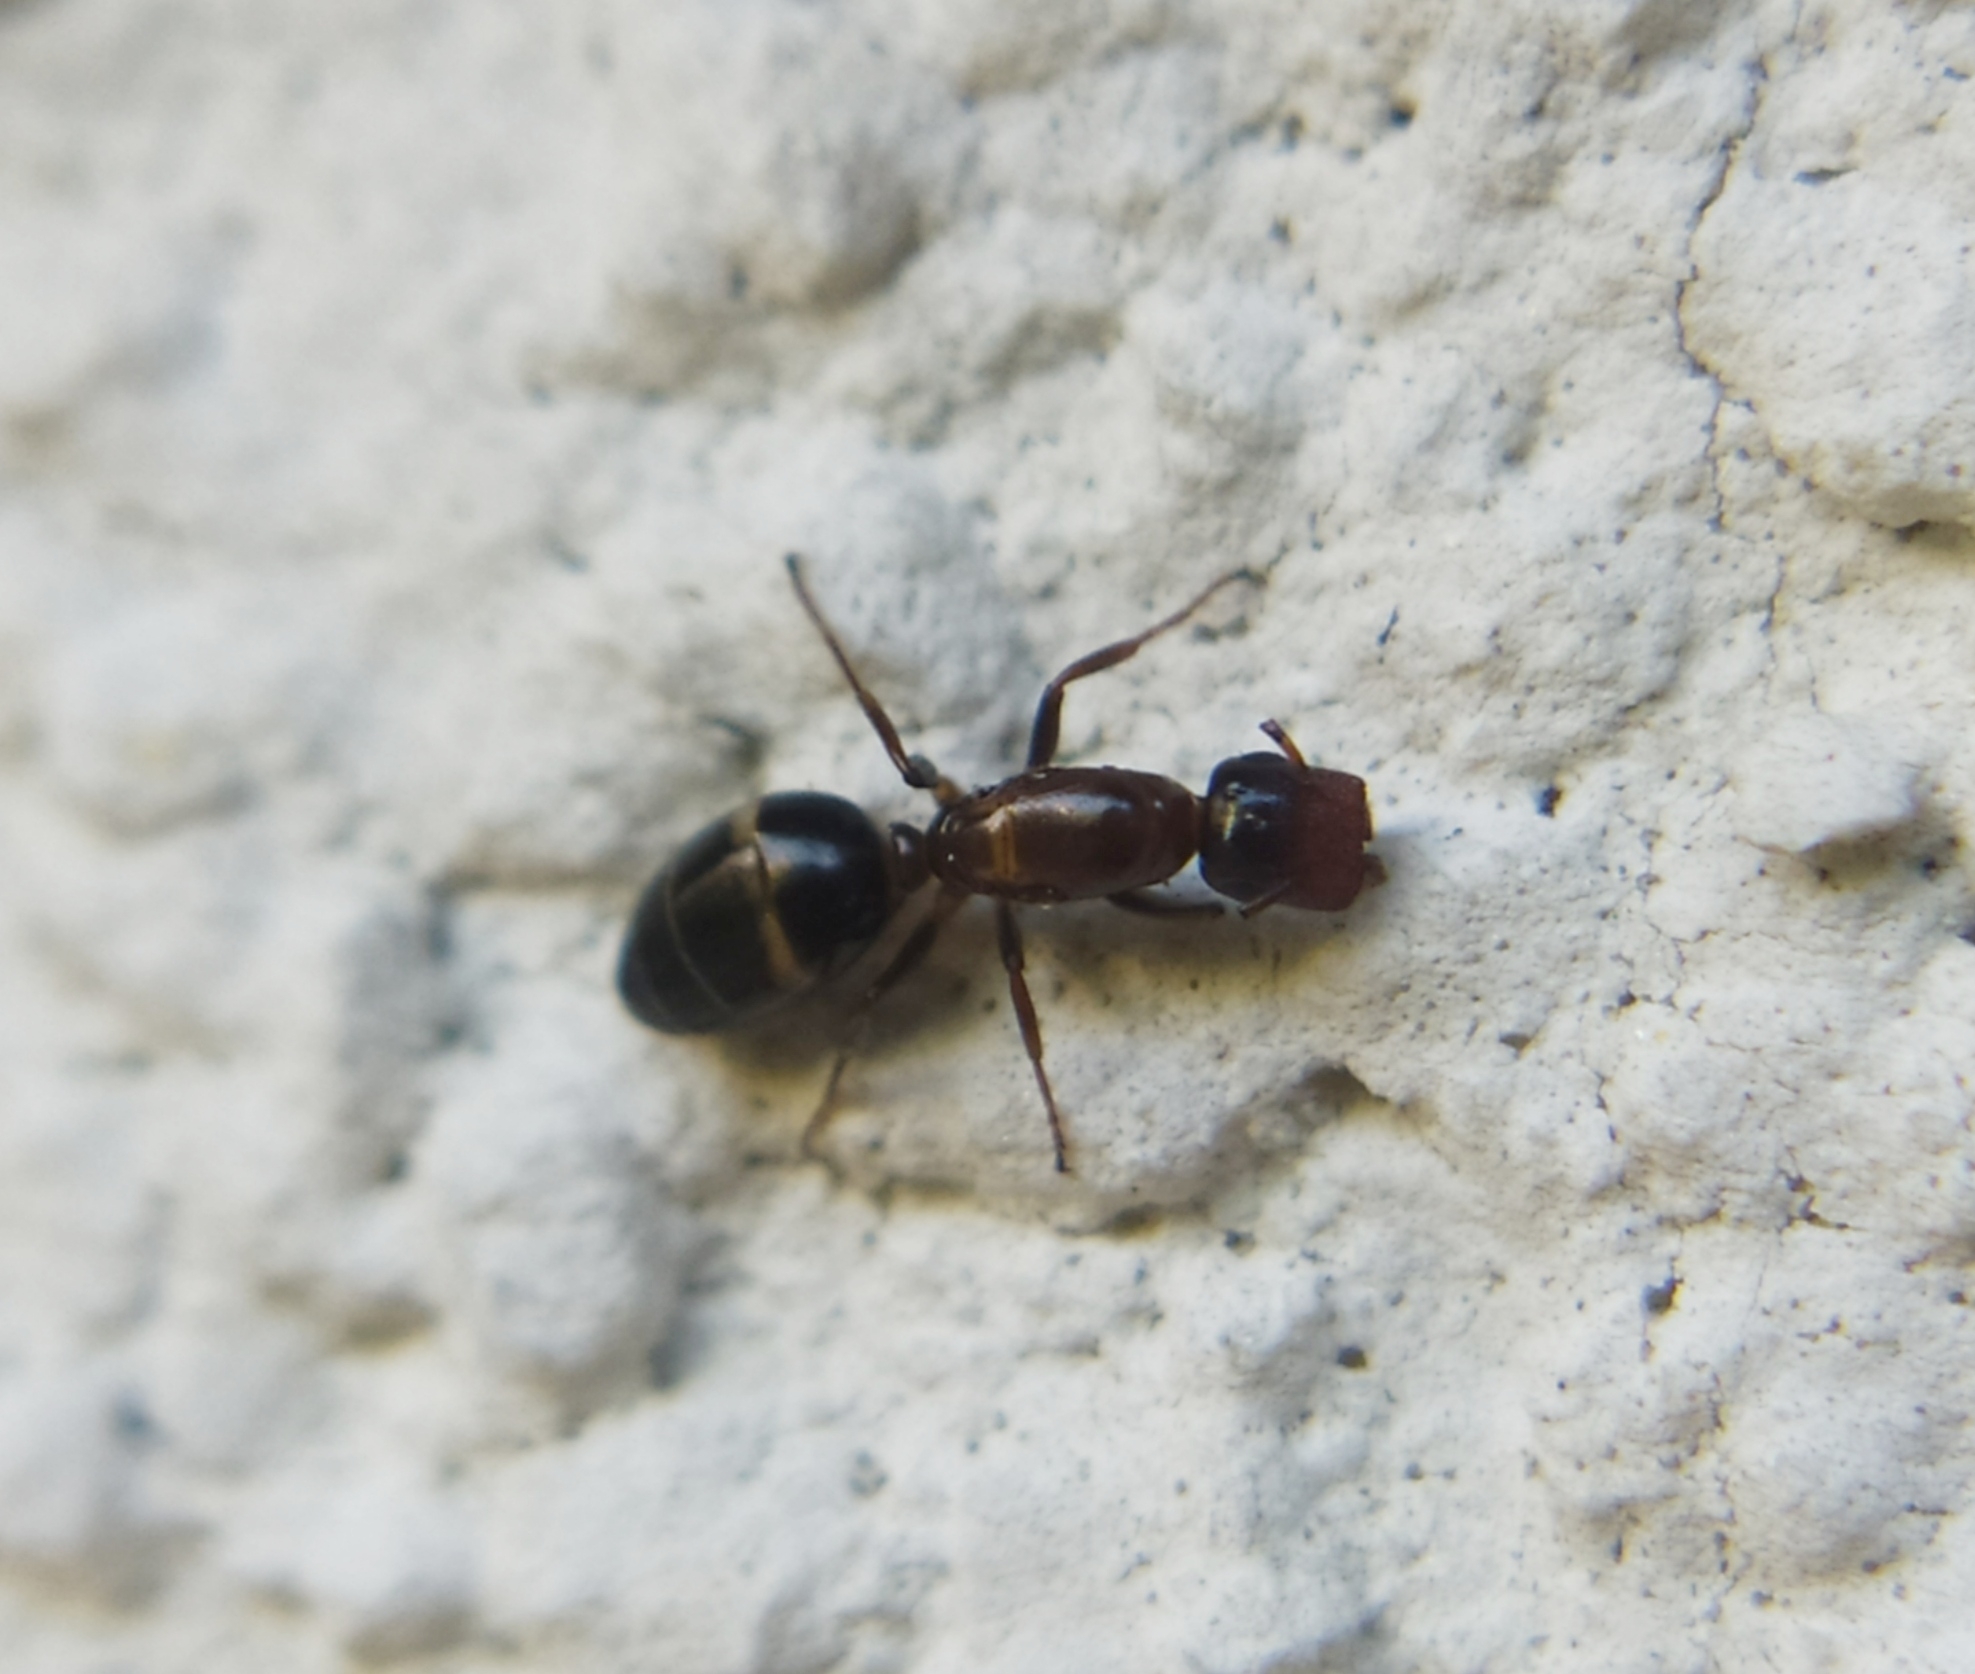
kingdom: Animalia
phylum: Arthropoda
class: Insecta
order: Hymenoptera
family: Formicidae
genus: Camponotus
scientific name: Camponotus truncatus
